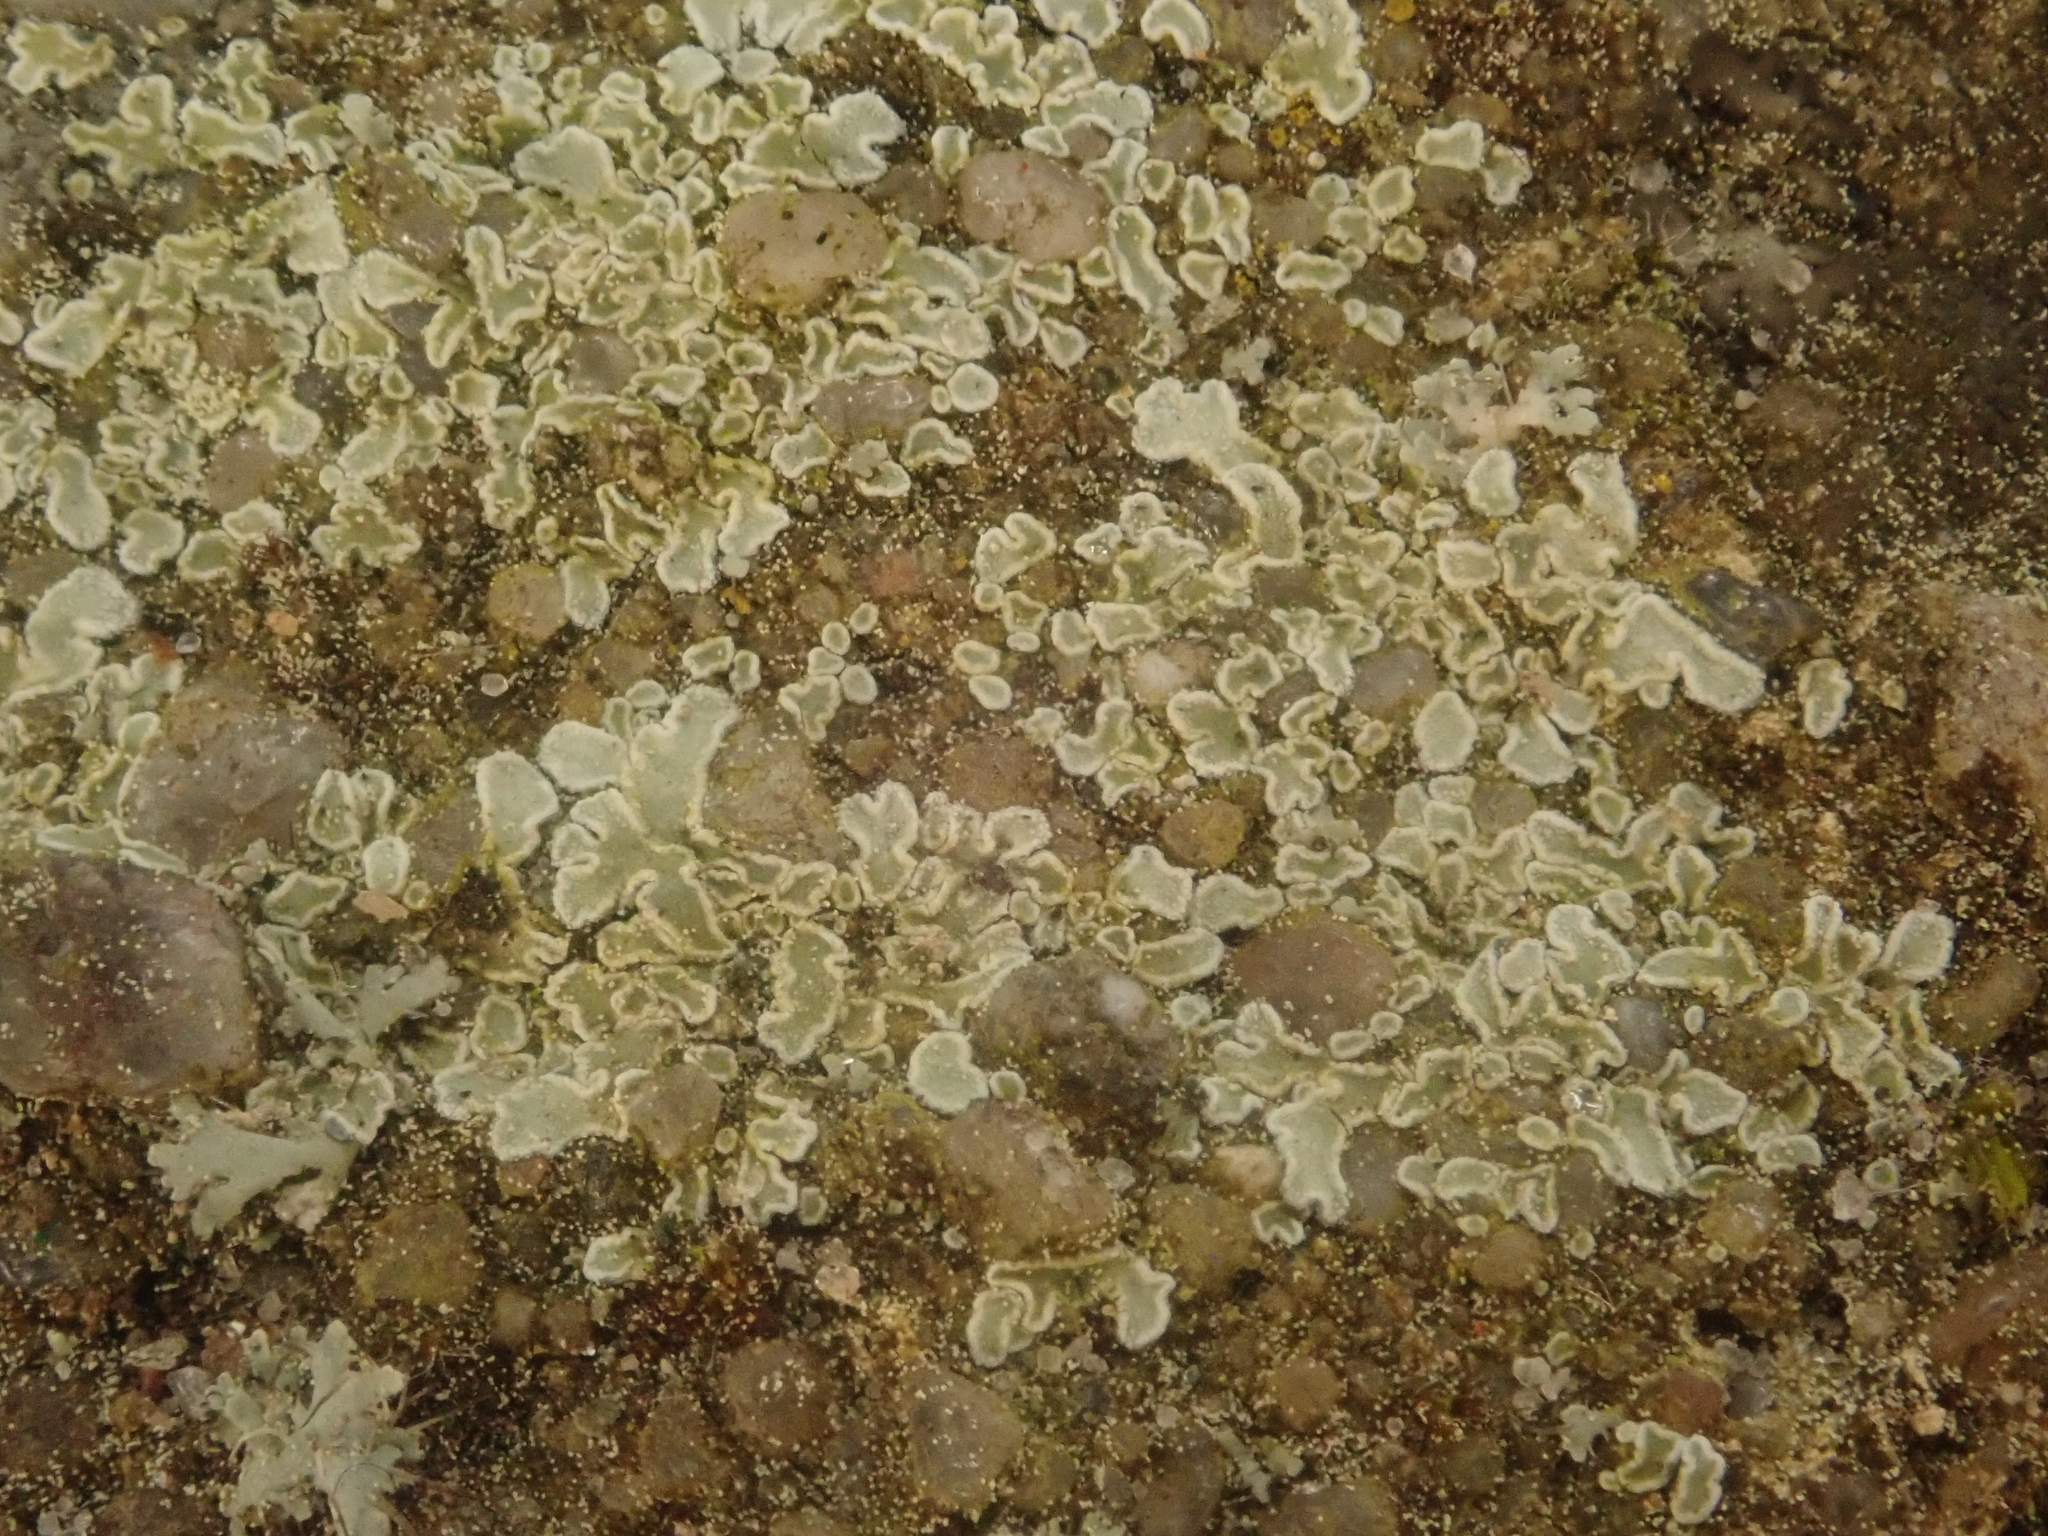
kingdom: Fungi
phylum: Ascomycota
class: Lecanoromycetes
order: Lecanorales
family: Lecanoraceae
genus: Protoparmeliopsis
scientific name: Protoparmeliopsis muralis
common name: Stonewall rim lichen
